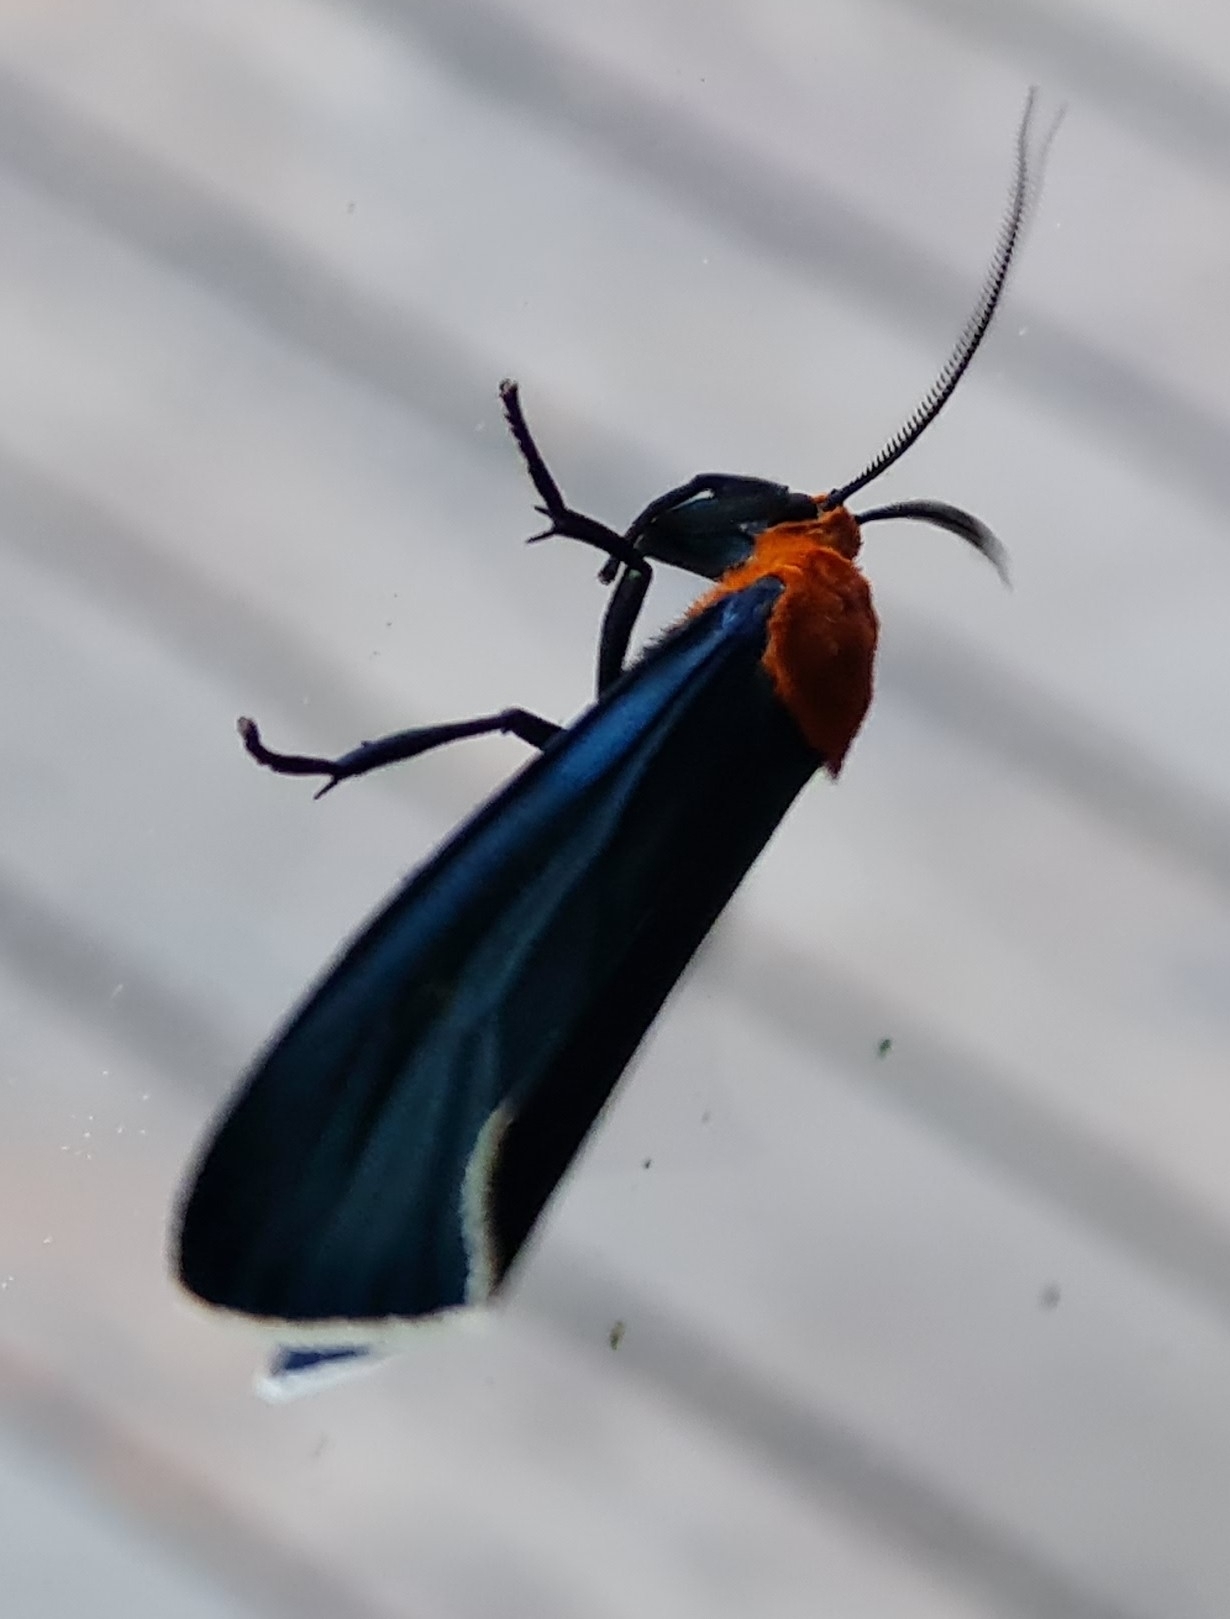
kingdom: Animalia
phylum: Arthropoda
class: Insecta
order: Lepidoptera
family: Erebidae
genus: Apistosia
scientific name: Apistosia judas
